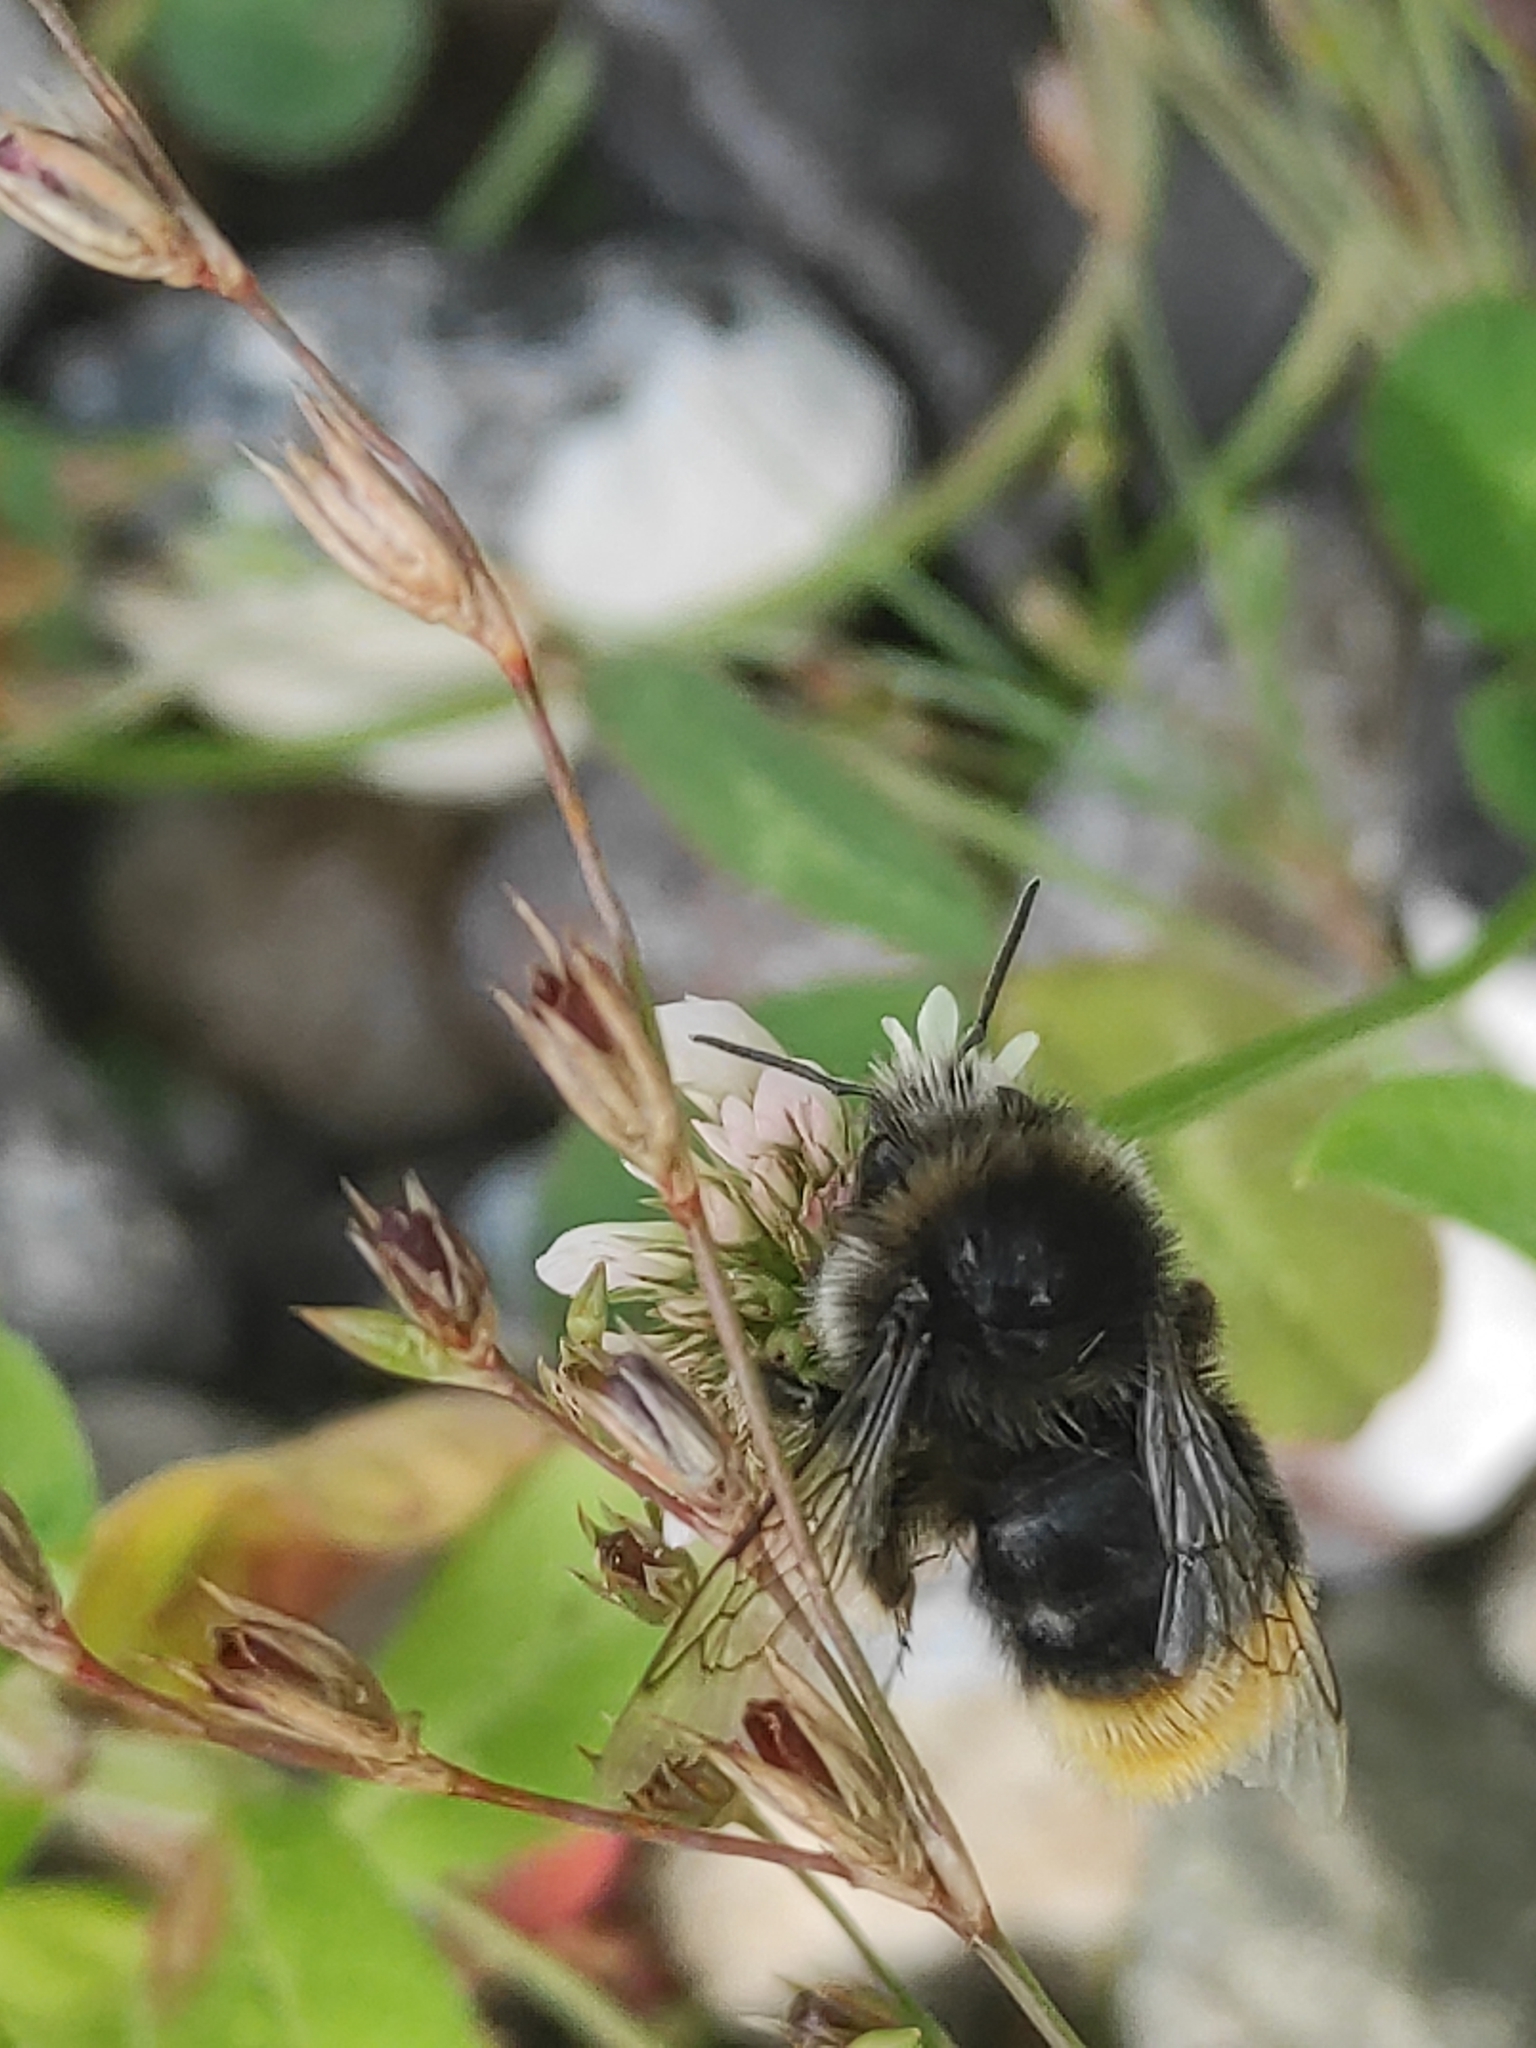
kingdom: Animalia
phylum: Arthropoda
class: Insecta
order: Hymenoptera
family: Apidae
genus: Bombus
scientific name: Bombus lapidarius
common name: Large red-tailed humble-bee
